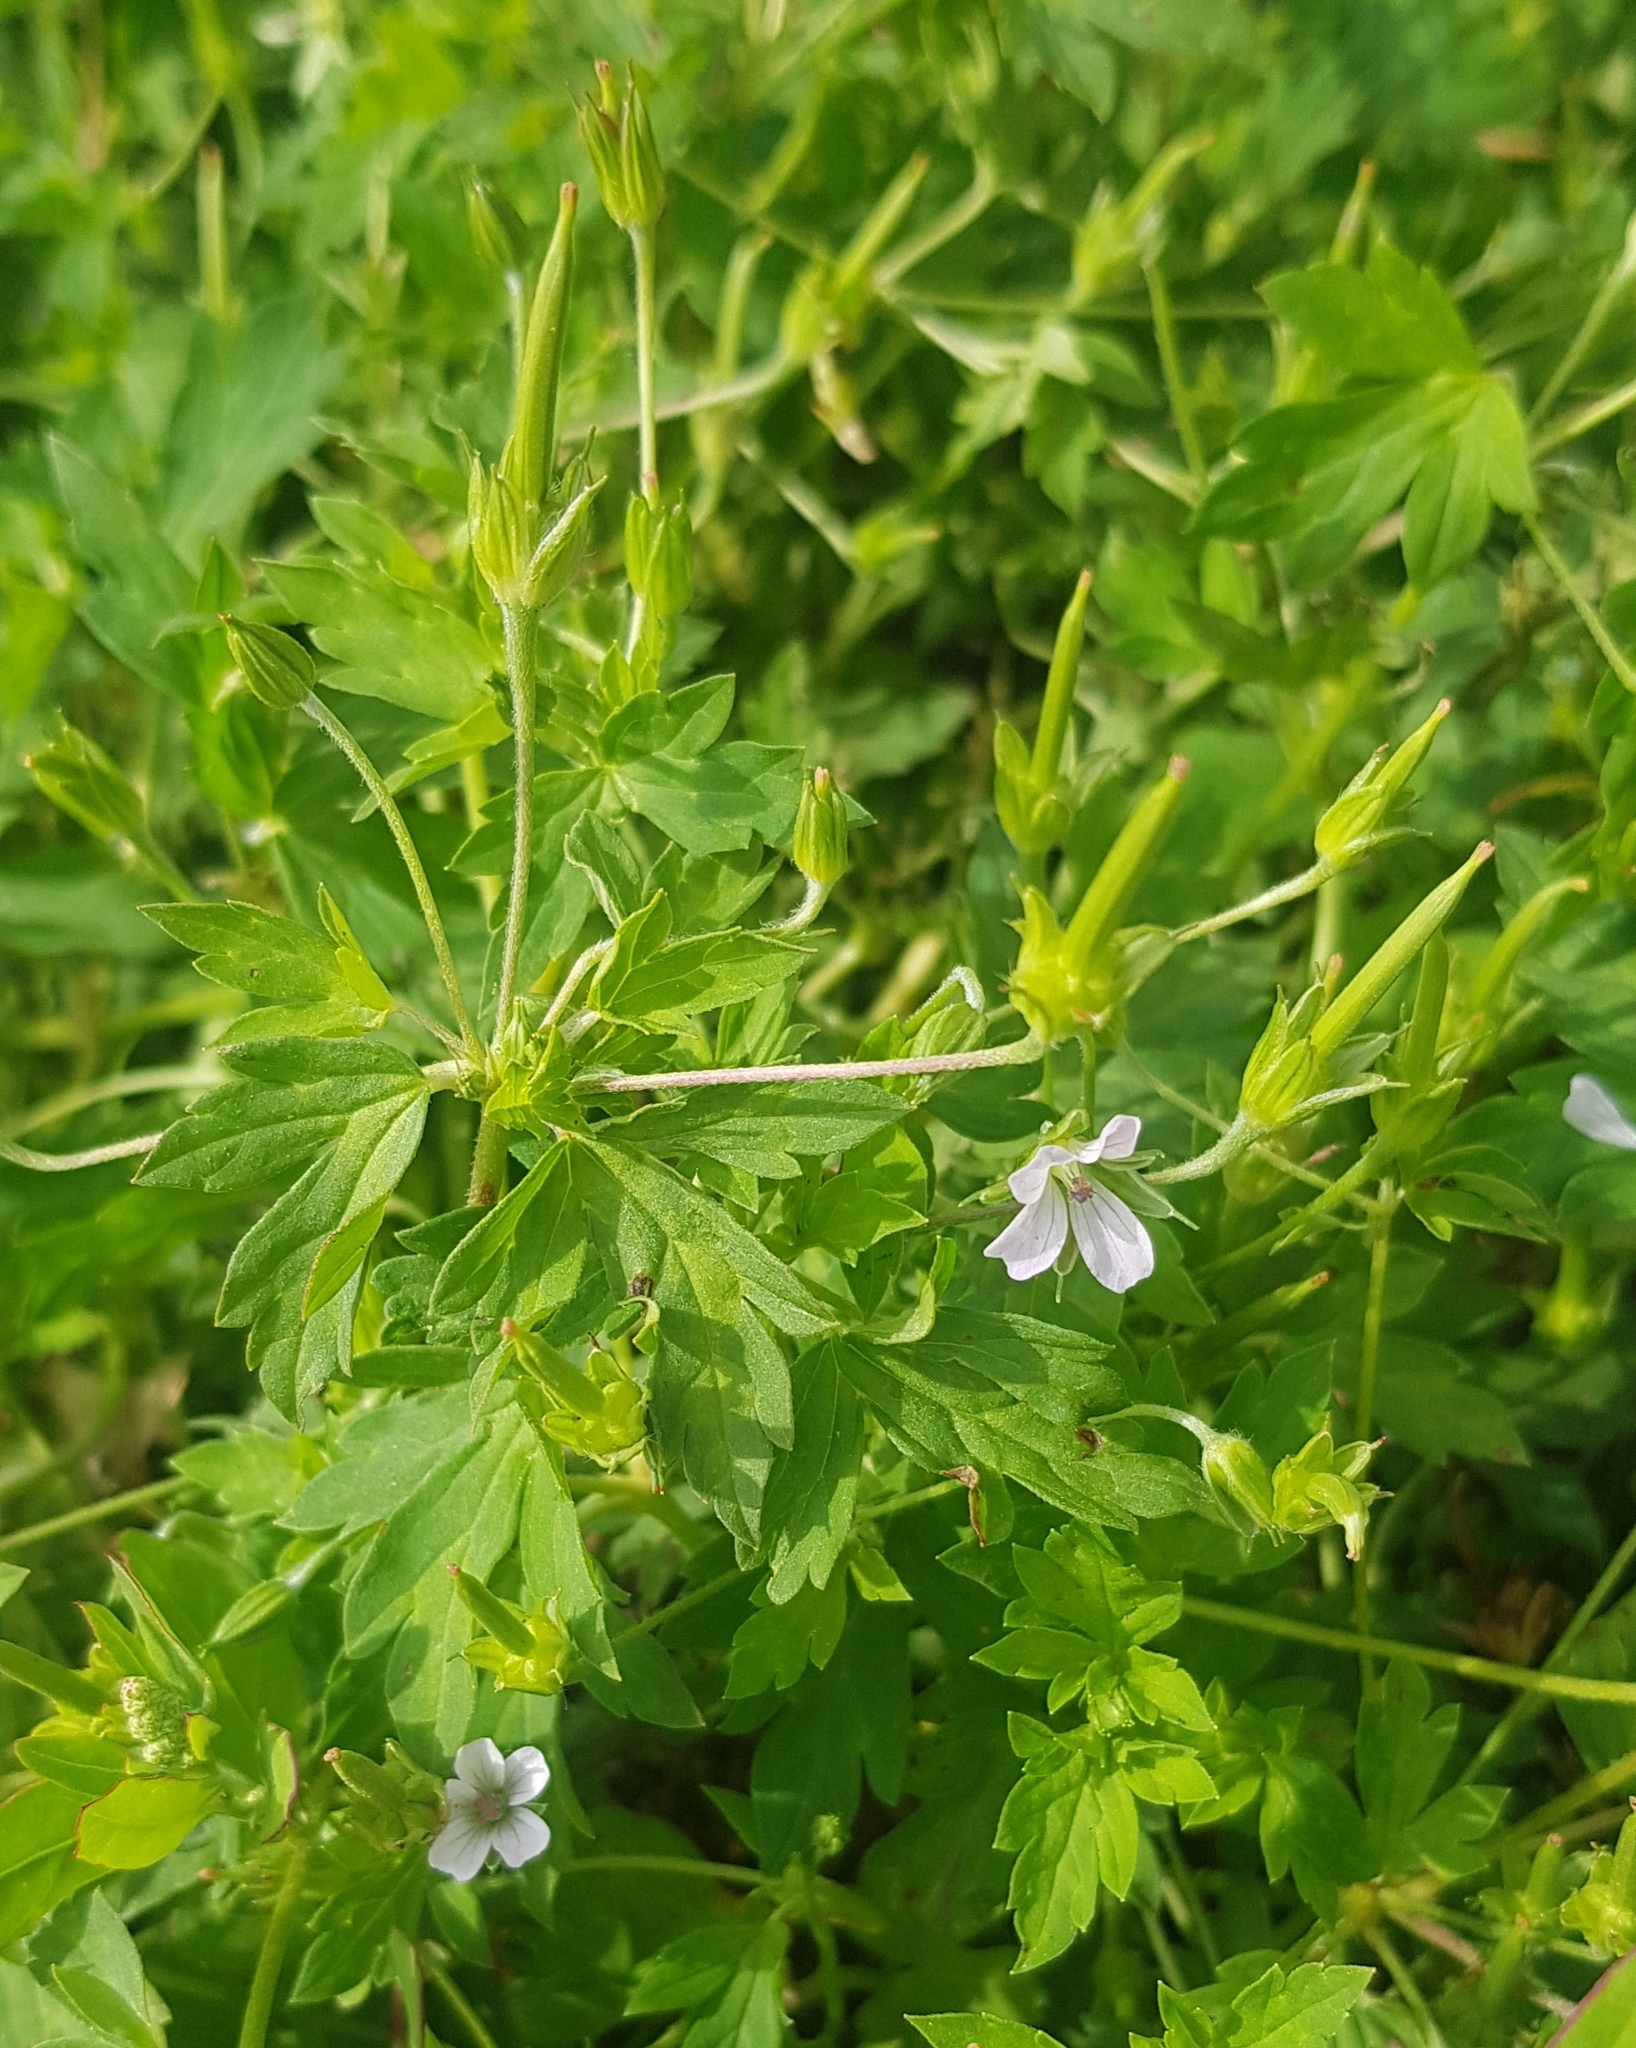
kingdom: Plantae
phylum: Tracheophyta
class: Magnoliopsida
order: Geraniales
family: Geraniaceae
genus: Geranium
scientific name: Geranium sibiricum
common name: Siberian crane's-bill
